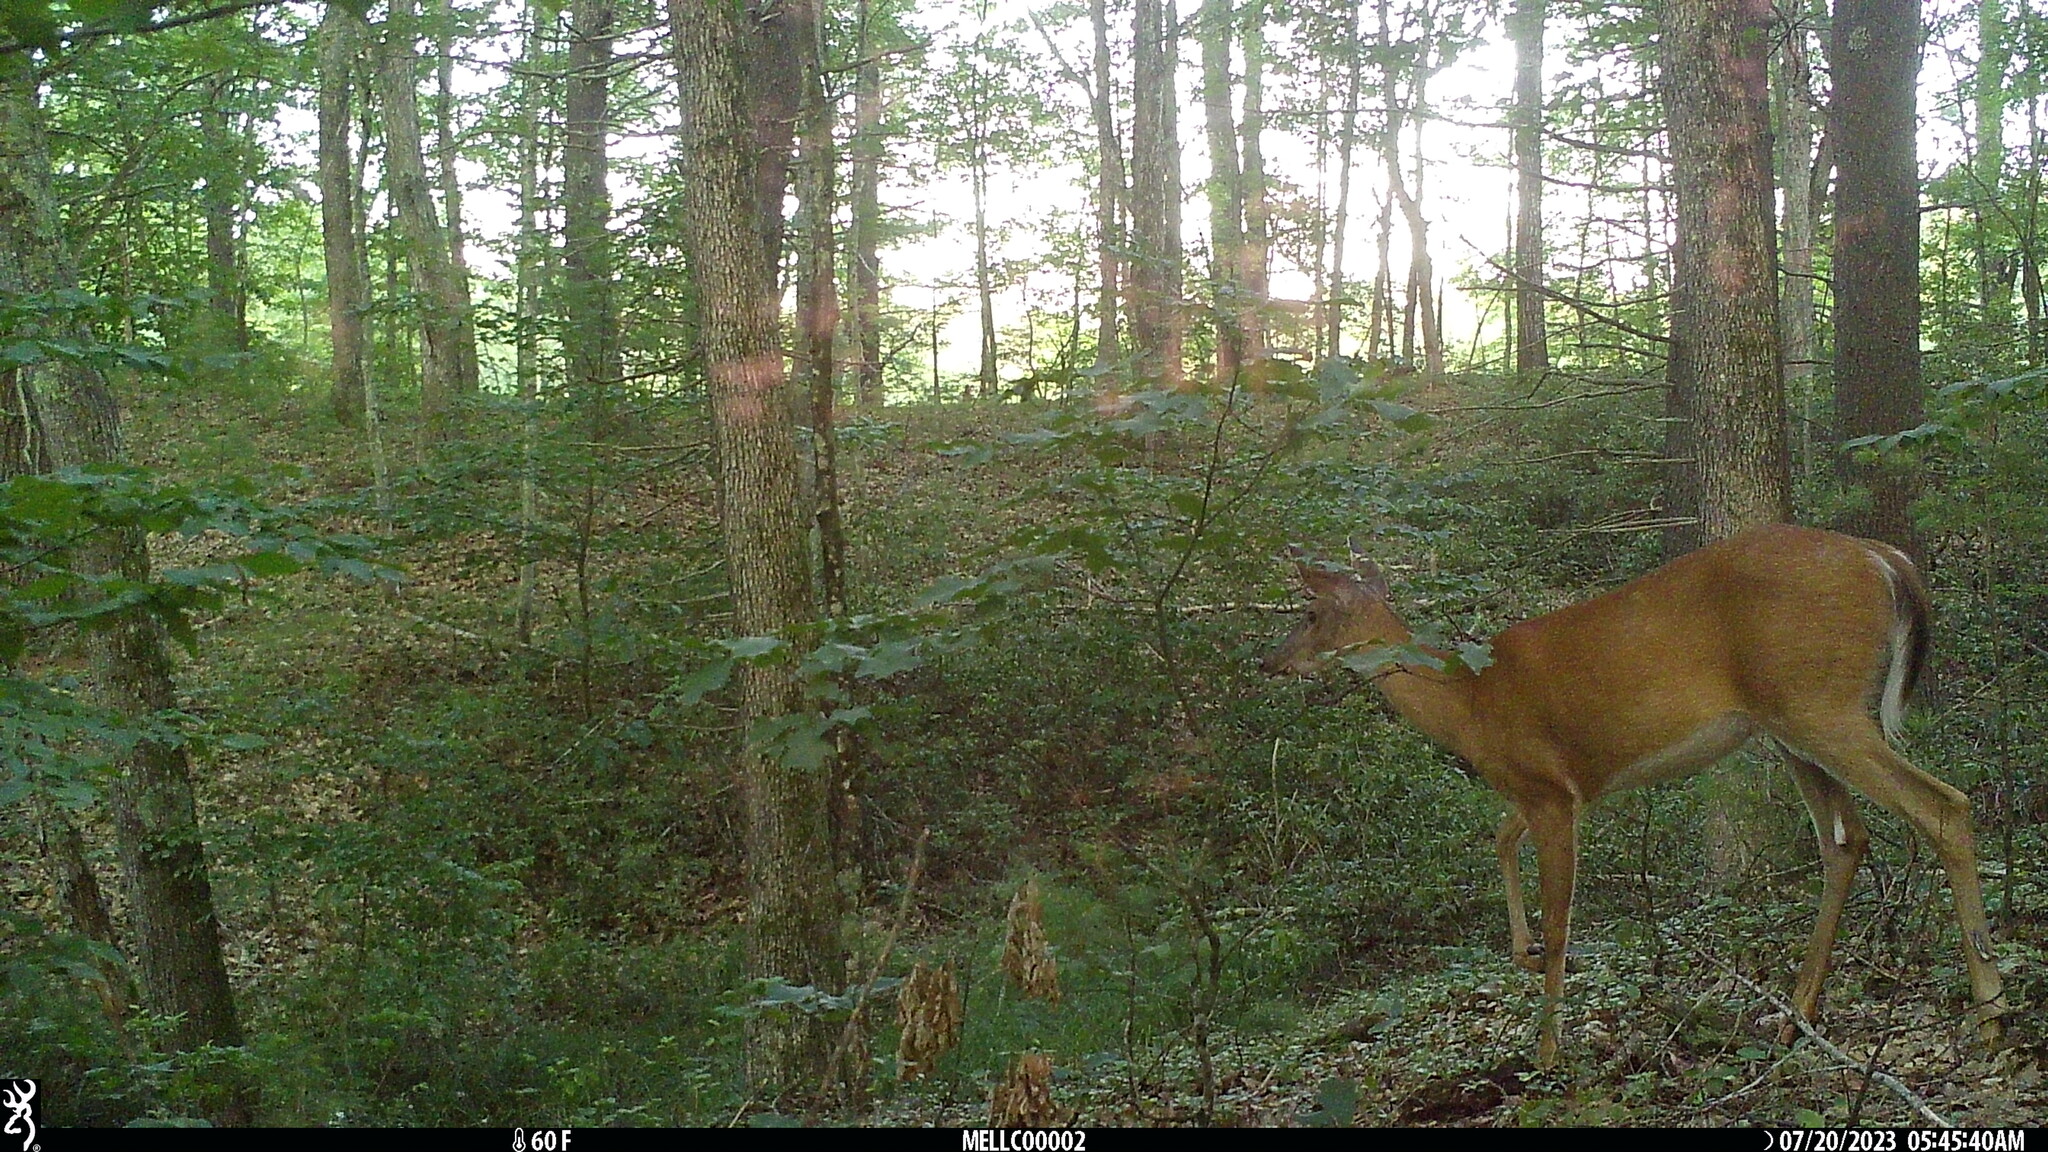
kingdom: Animalia
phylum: Chordata
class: Mammalia
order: Artiodactyla
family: Cervidae
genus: Odocoileus
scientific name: Odocoileus virginianus
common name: White-tailed deer
